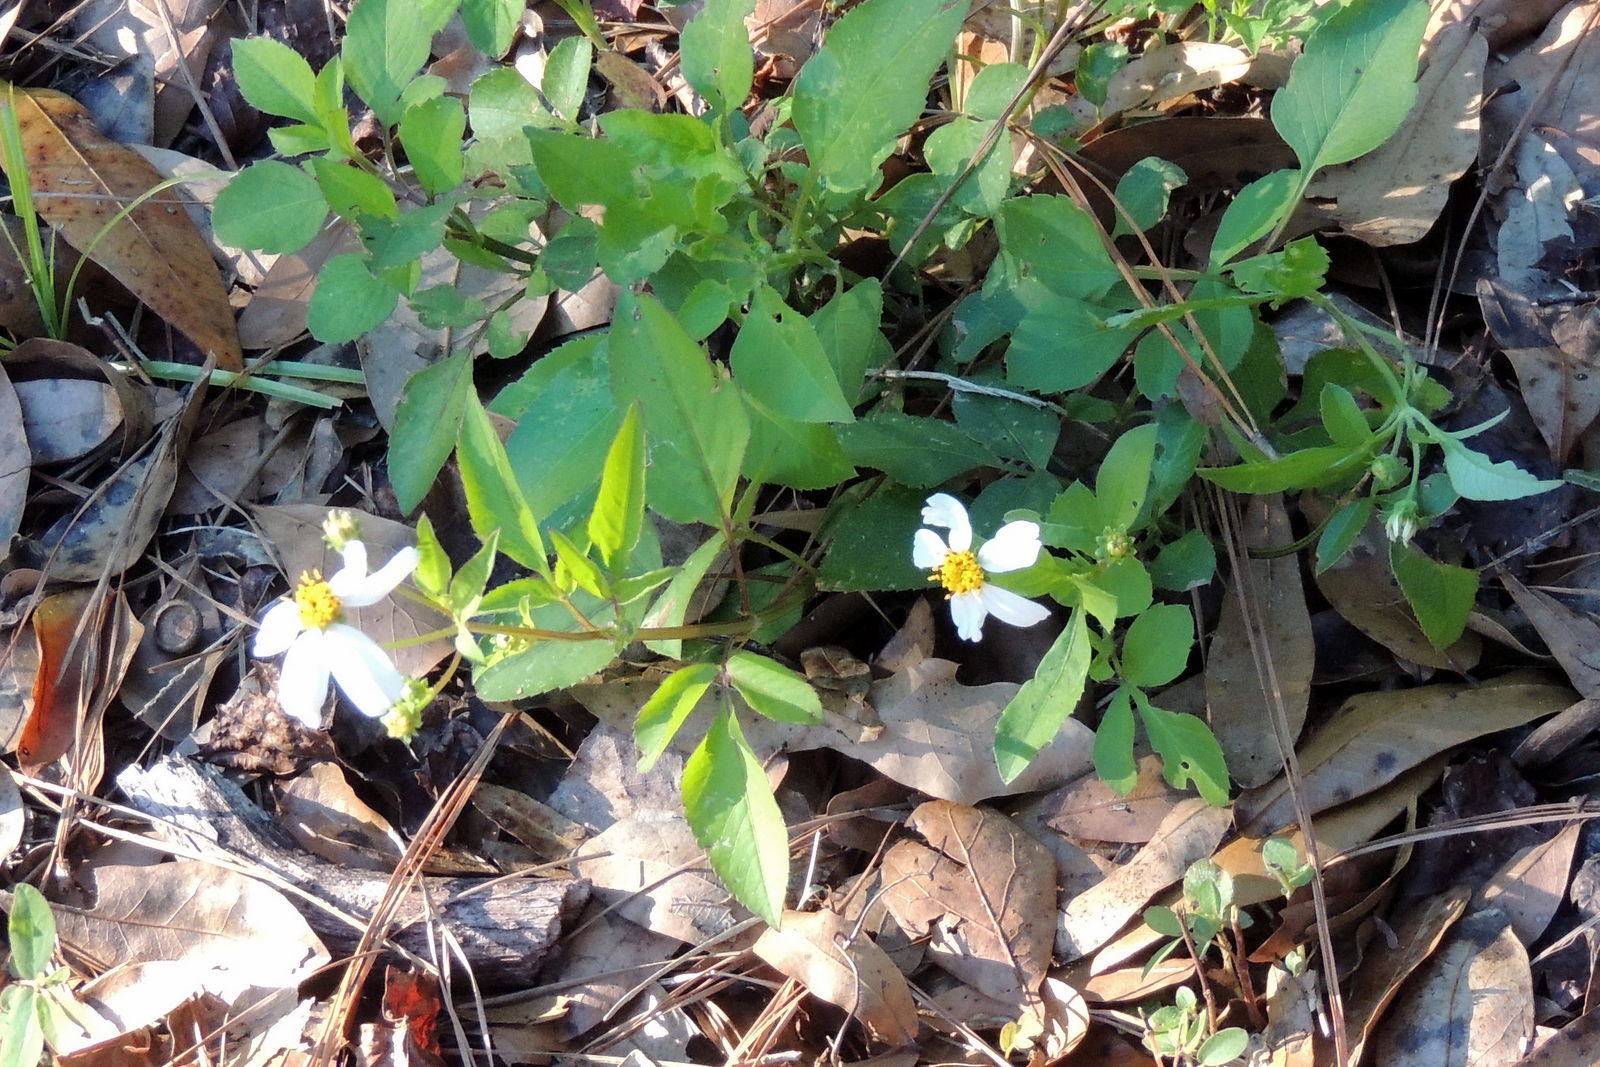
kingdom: Plantae
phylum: Tracheophyta
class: Magnoliopsida
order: Asterales
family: Asteraceae
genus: Bidens
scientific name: Bidens alba
